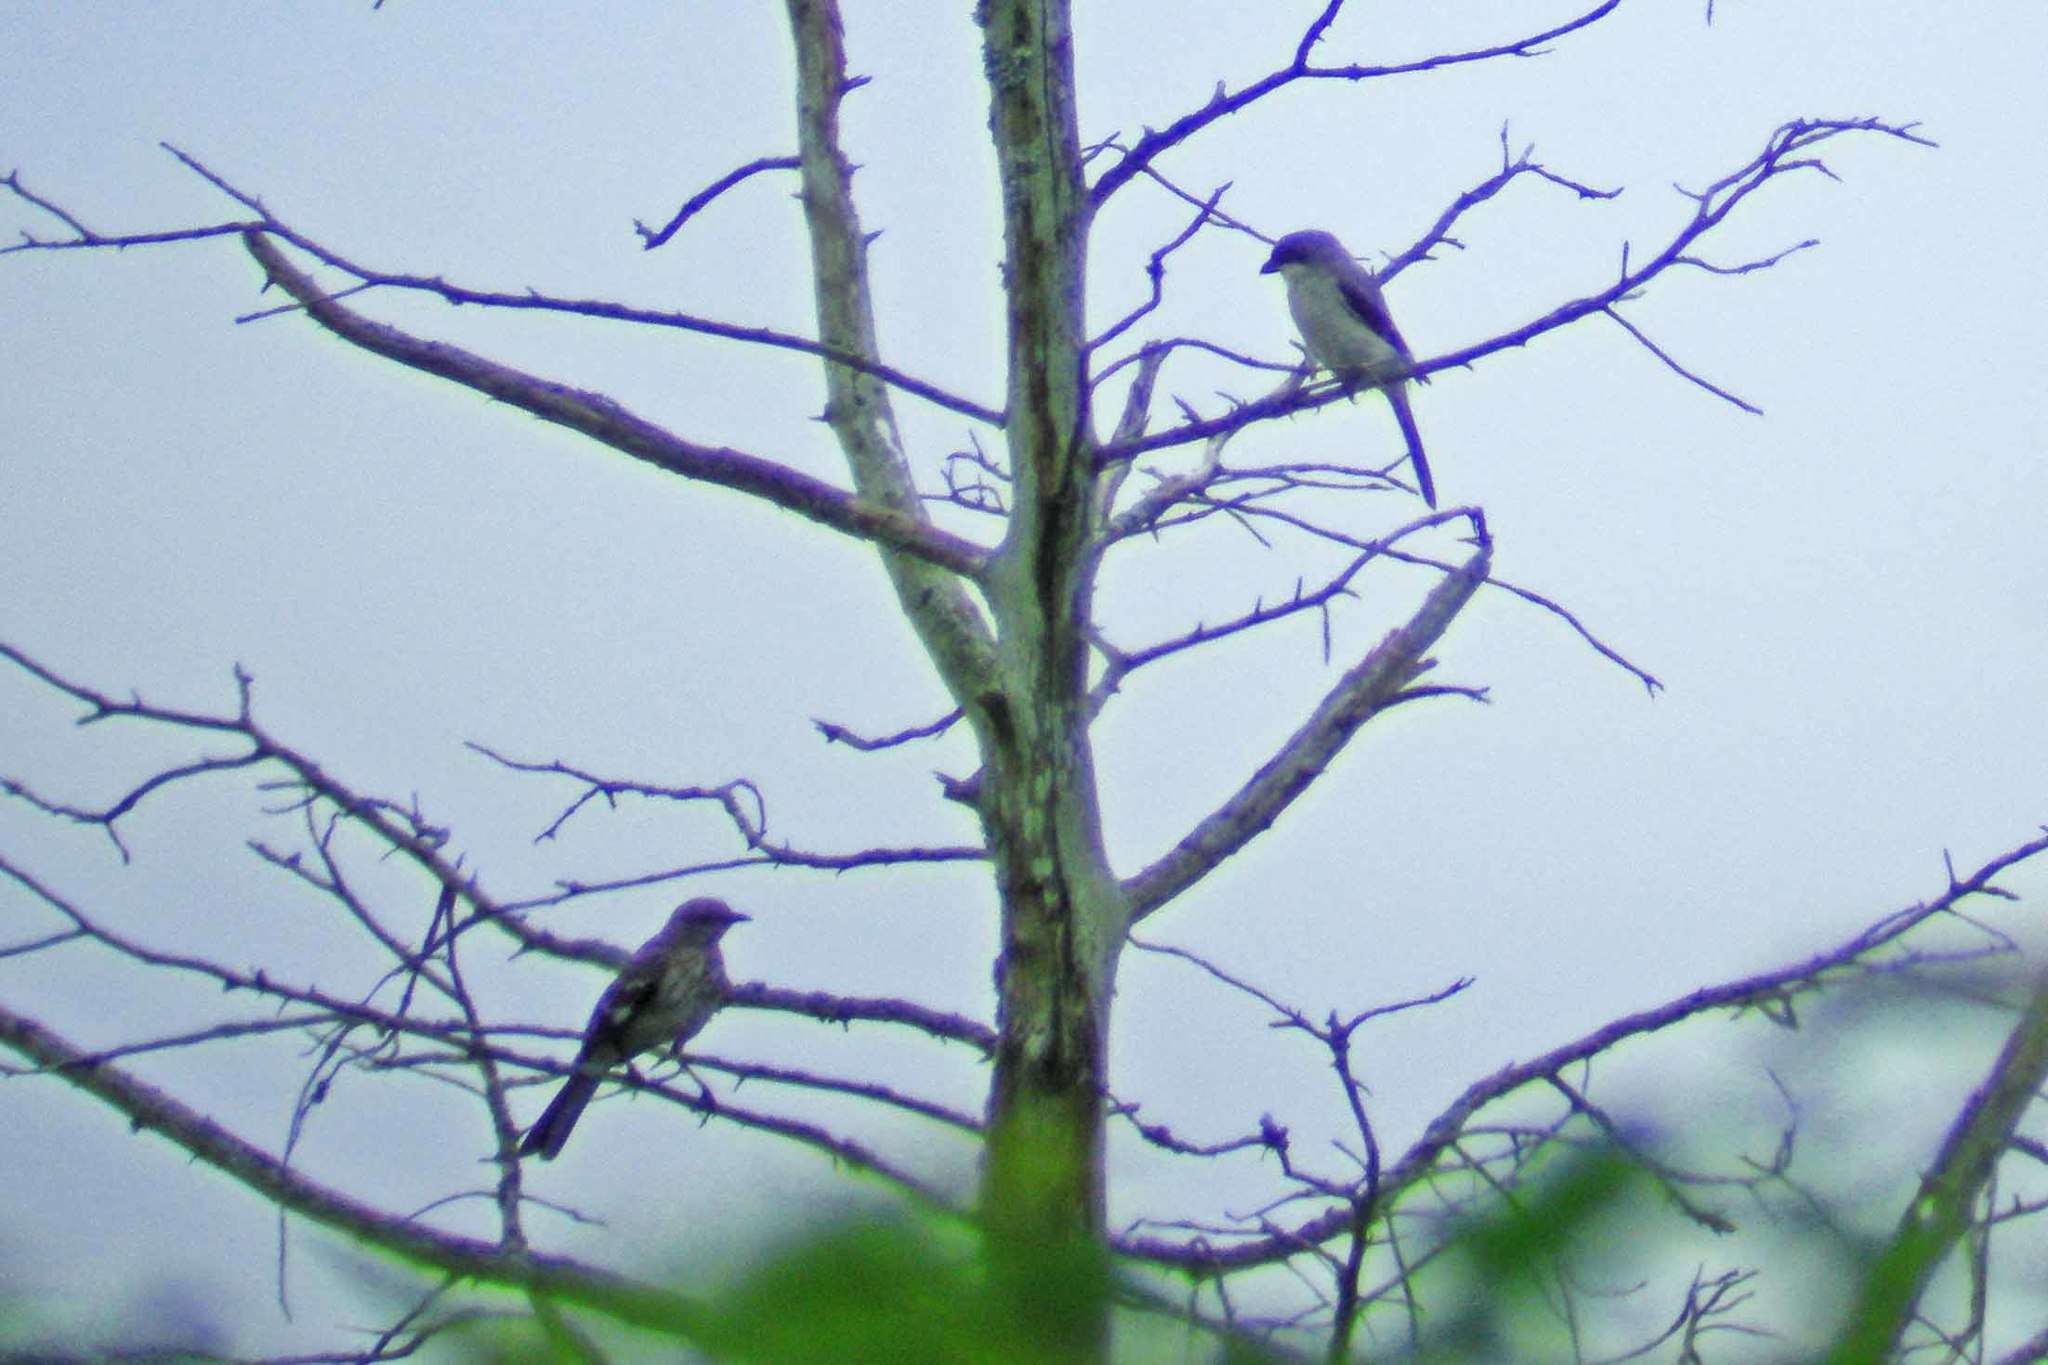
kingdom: Animalia
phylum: Chordata
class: Aves
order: Passeriformes
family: Mimidae
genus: Mimus
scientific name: Mimus polyglottos
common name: Northern mockingbird
